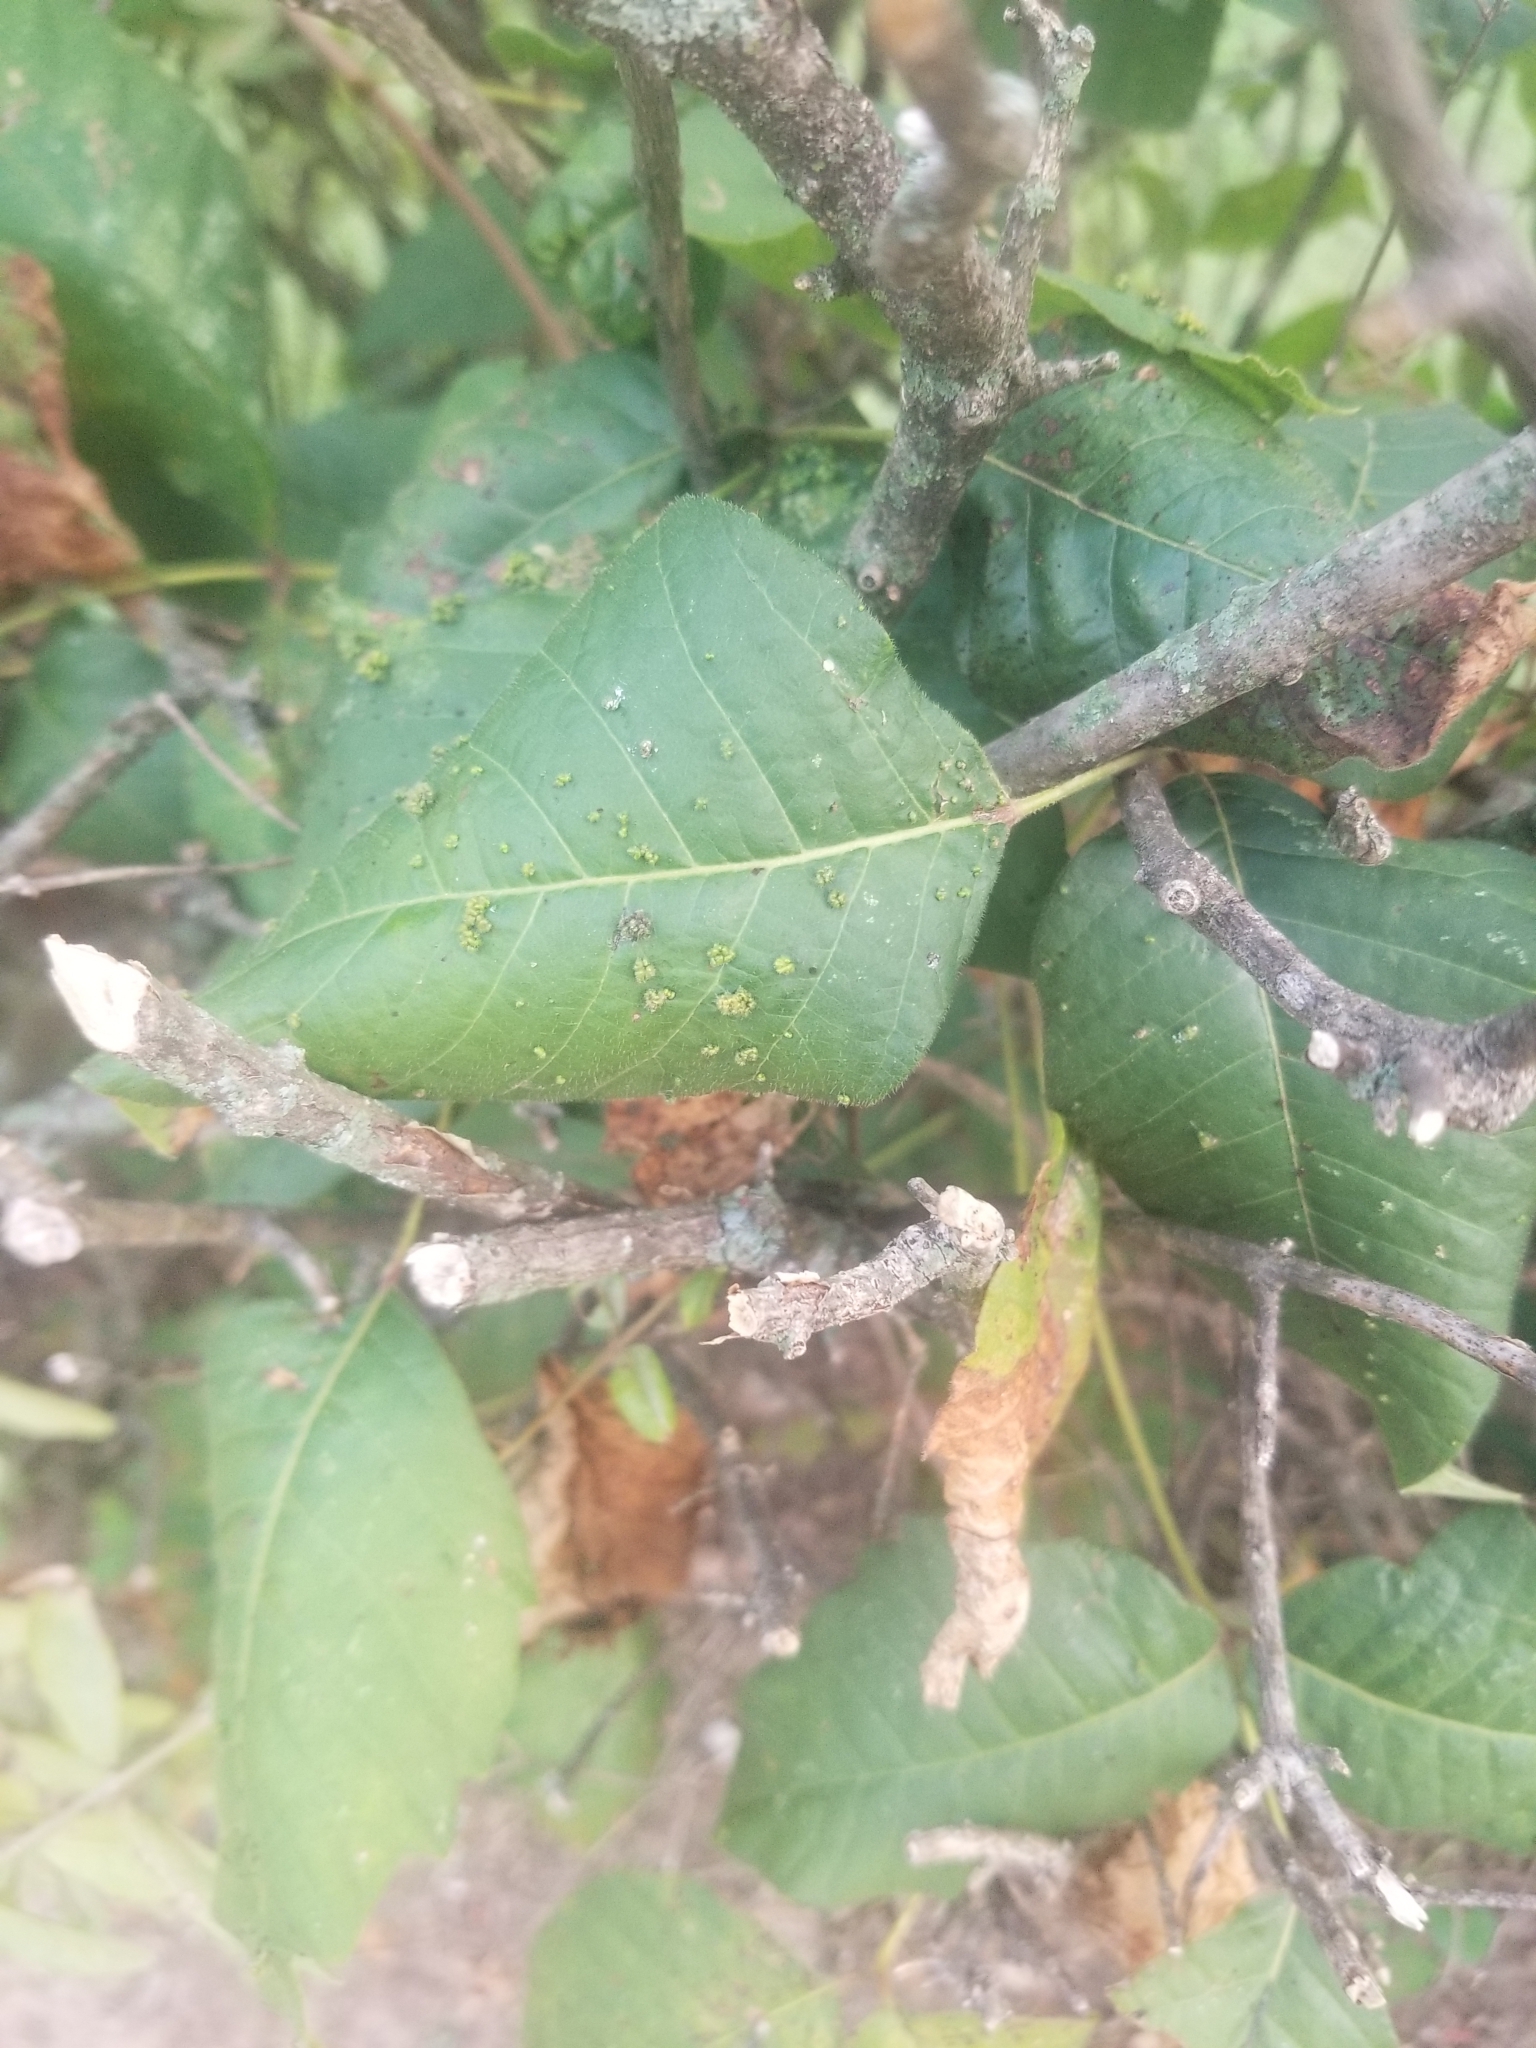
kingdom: Animalia
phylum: Arthropoda
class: Arachnida
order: Trombidiformes
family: Eriophyidae
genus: Aculops
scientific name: Aculops
